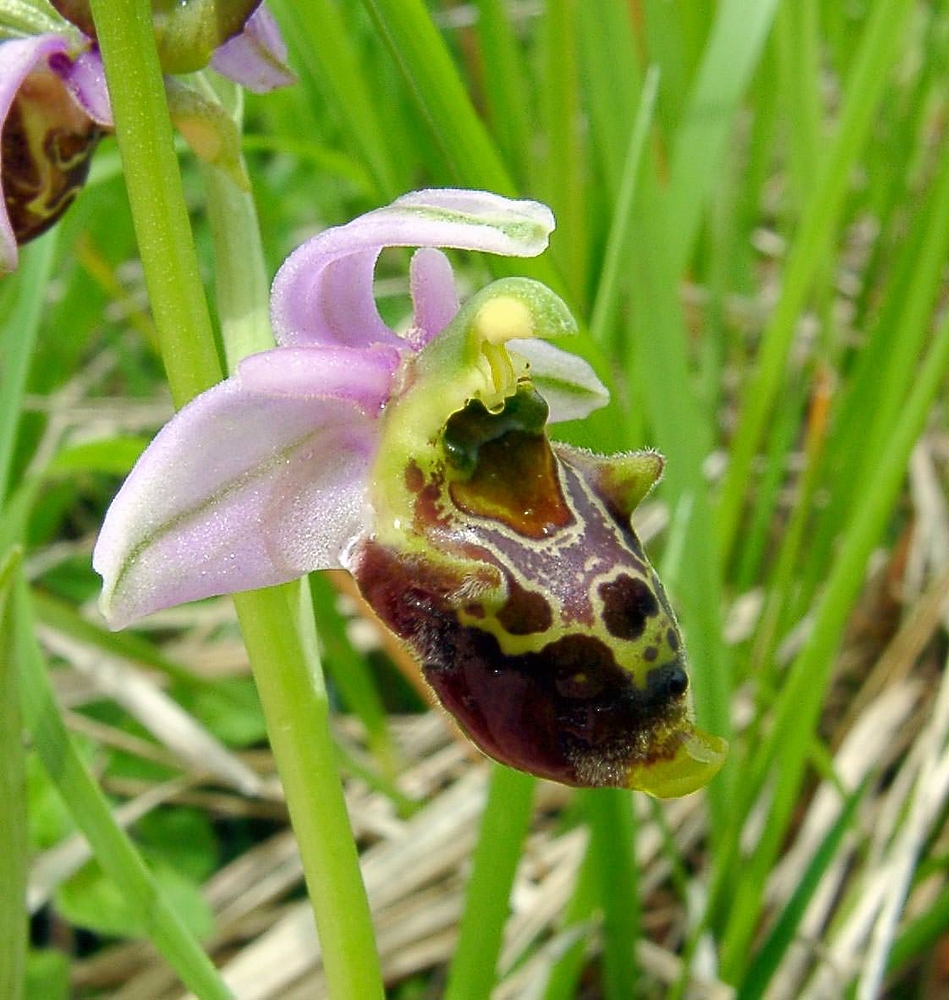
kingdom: Plantae
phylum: Tracheophyta
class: Liliopsida
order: Asparagales
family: Orchidaceae
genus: Ophrys
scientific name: Ophrys holosericea
